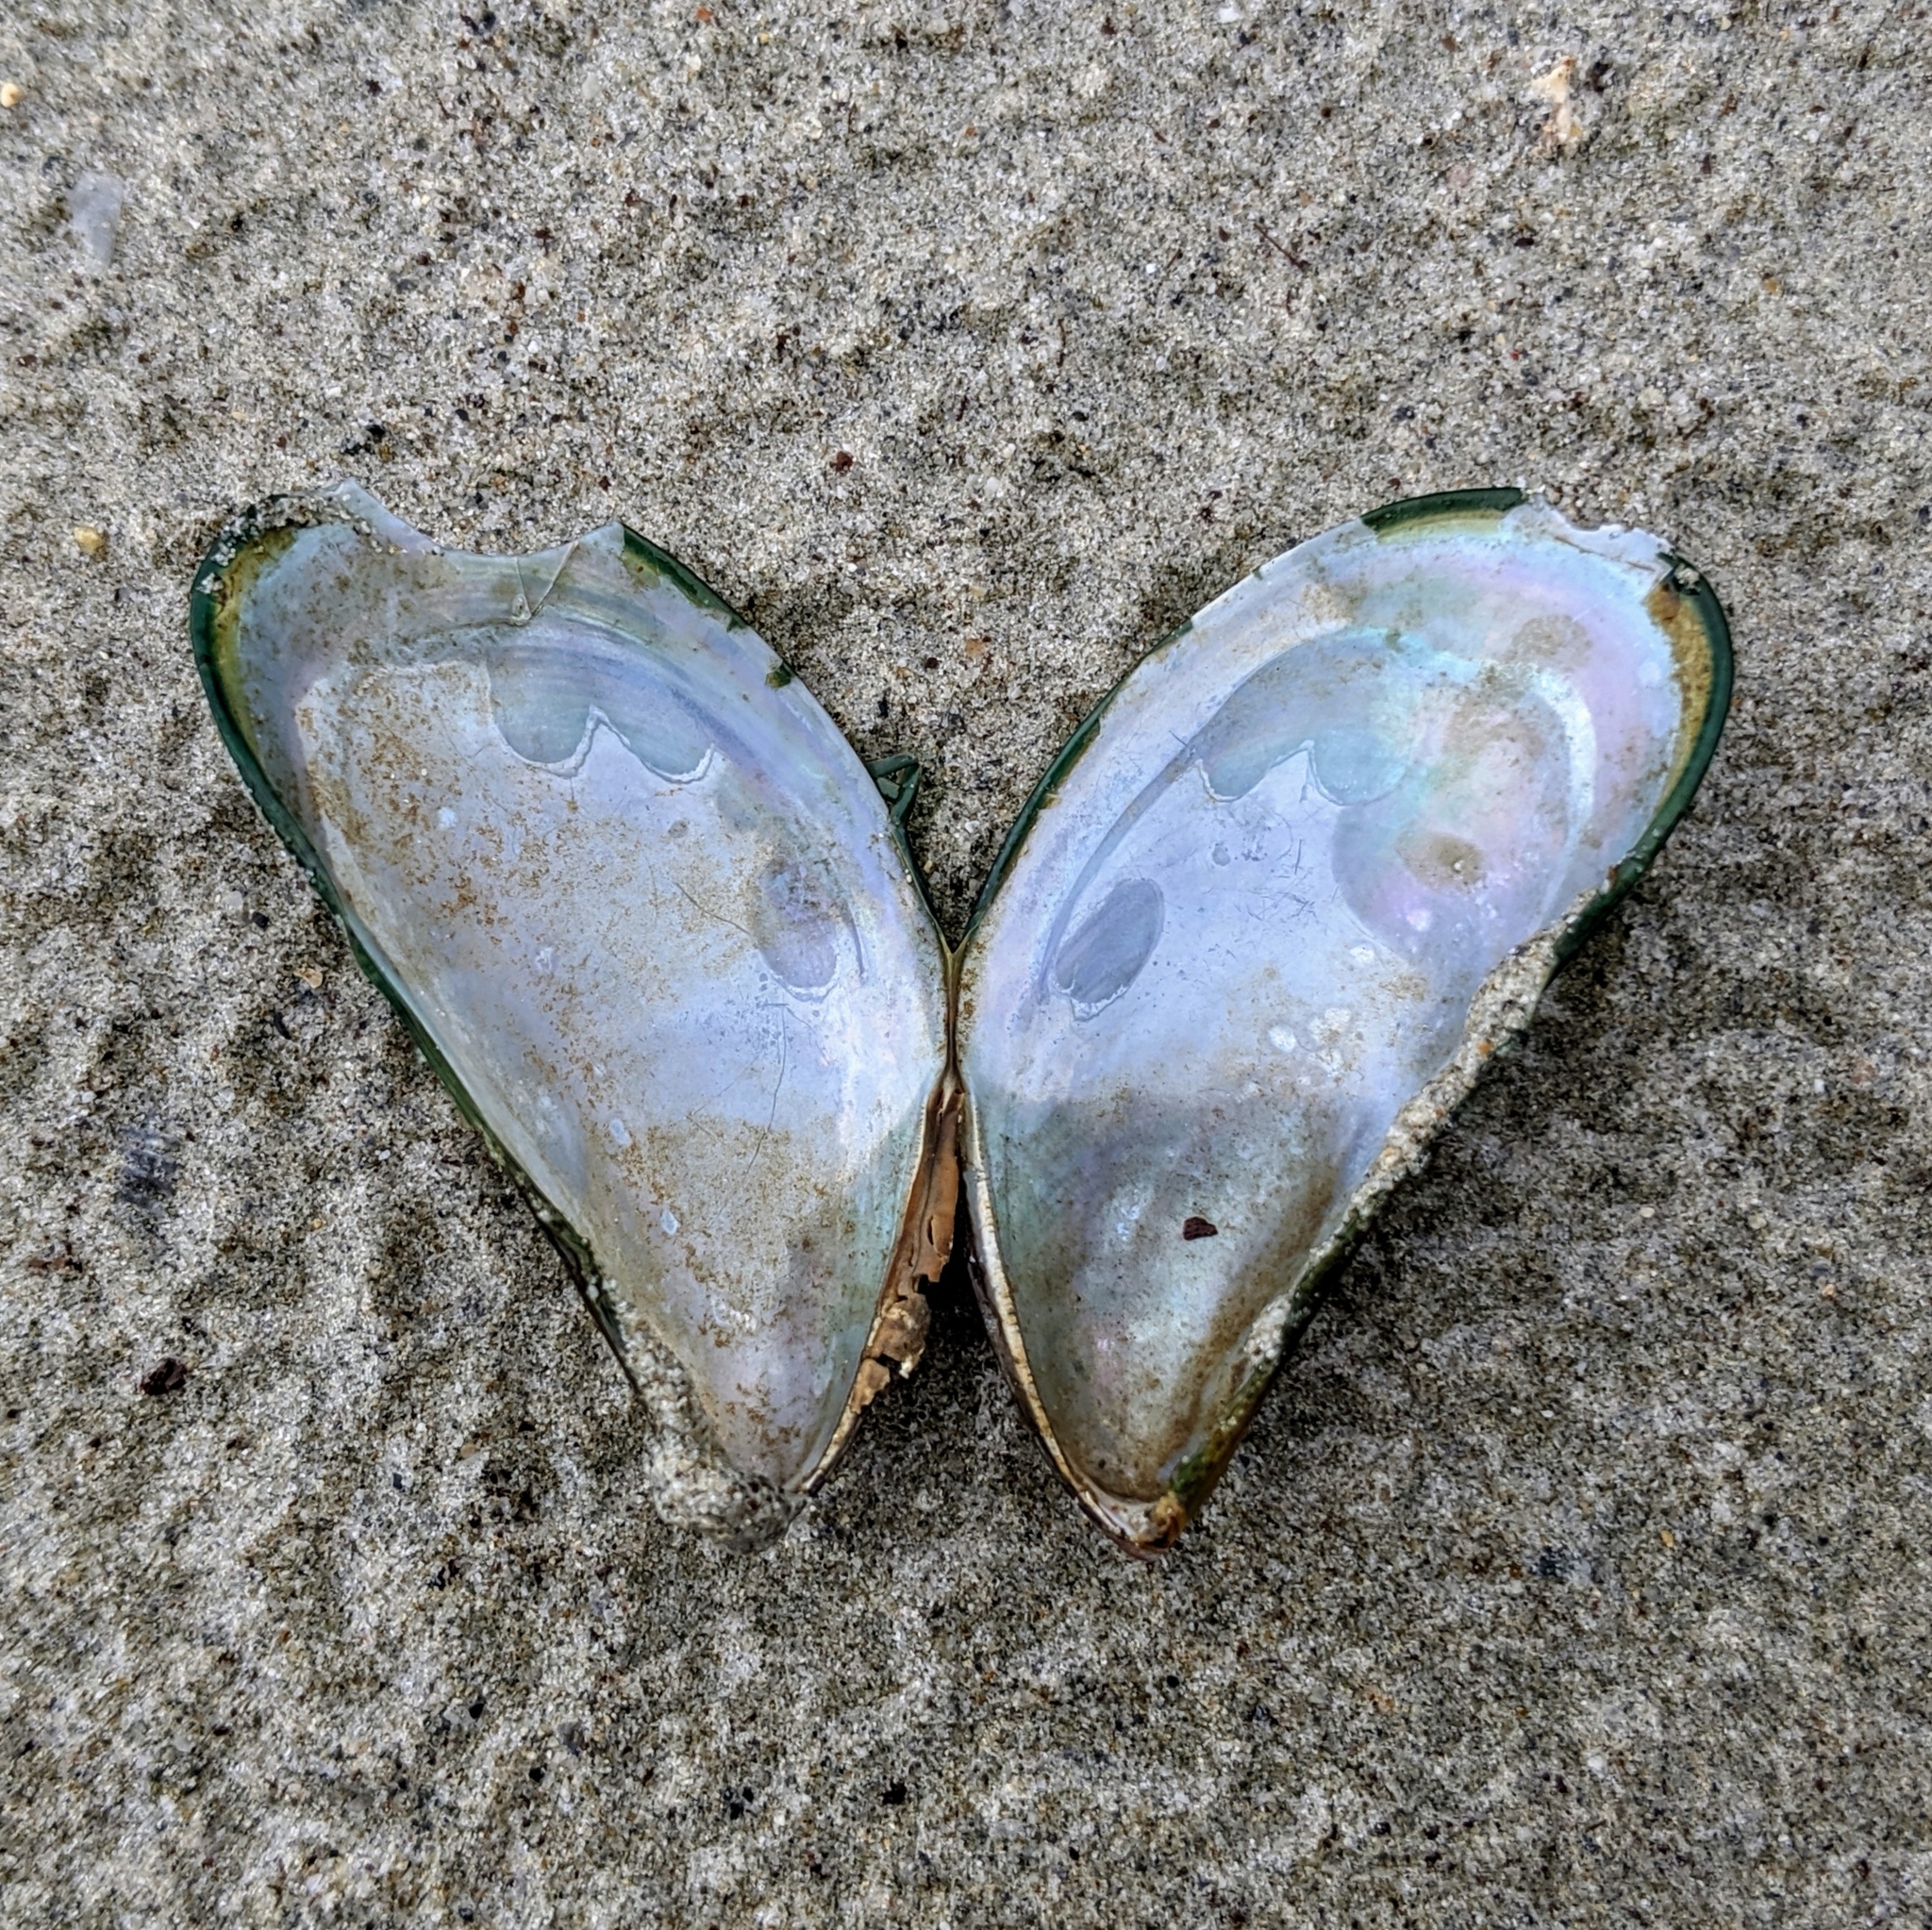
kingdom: Animalia
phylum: Mollusca
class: Bivalvia
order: Mytilida
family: Mytilidae
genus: Perna
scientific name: Perna viridis
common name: Green mussel
